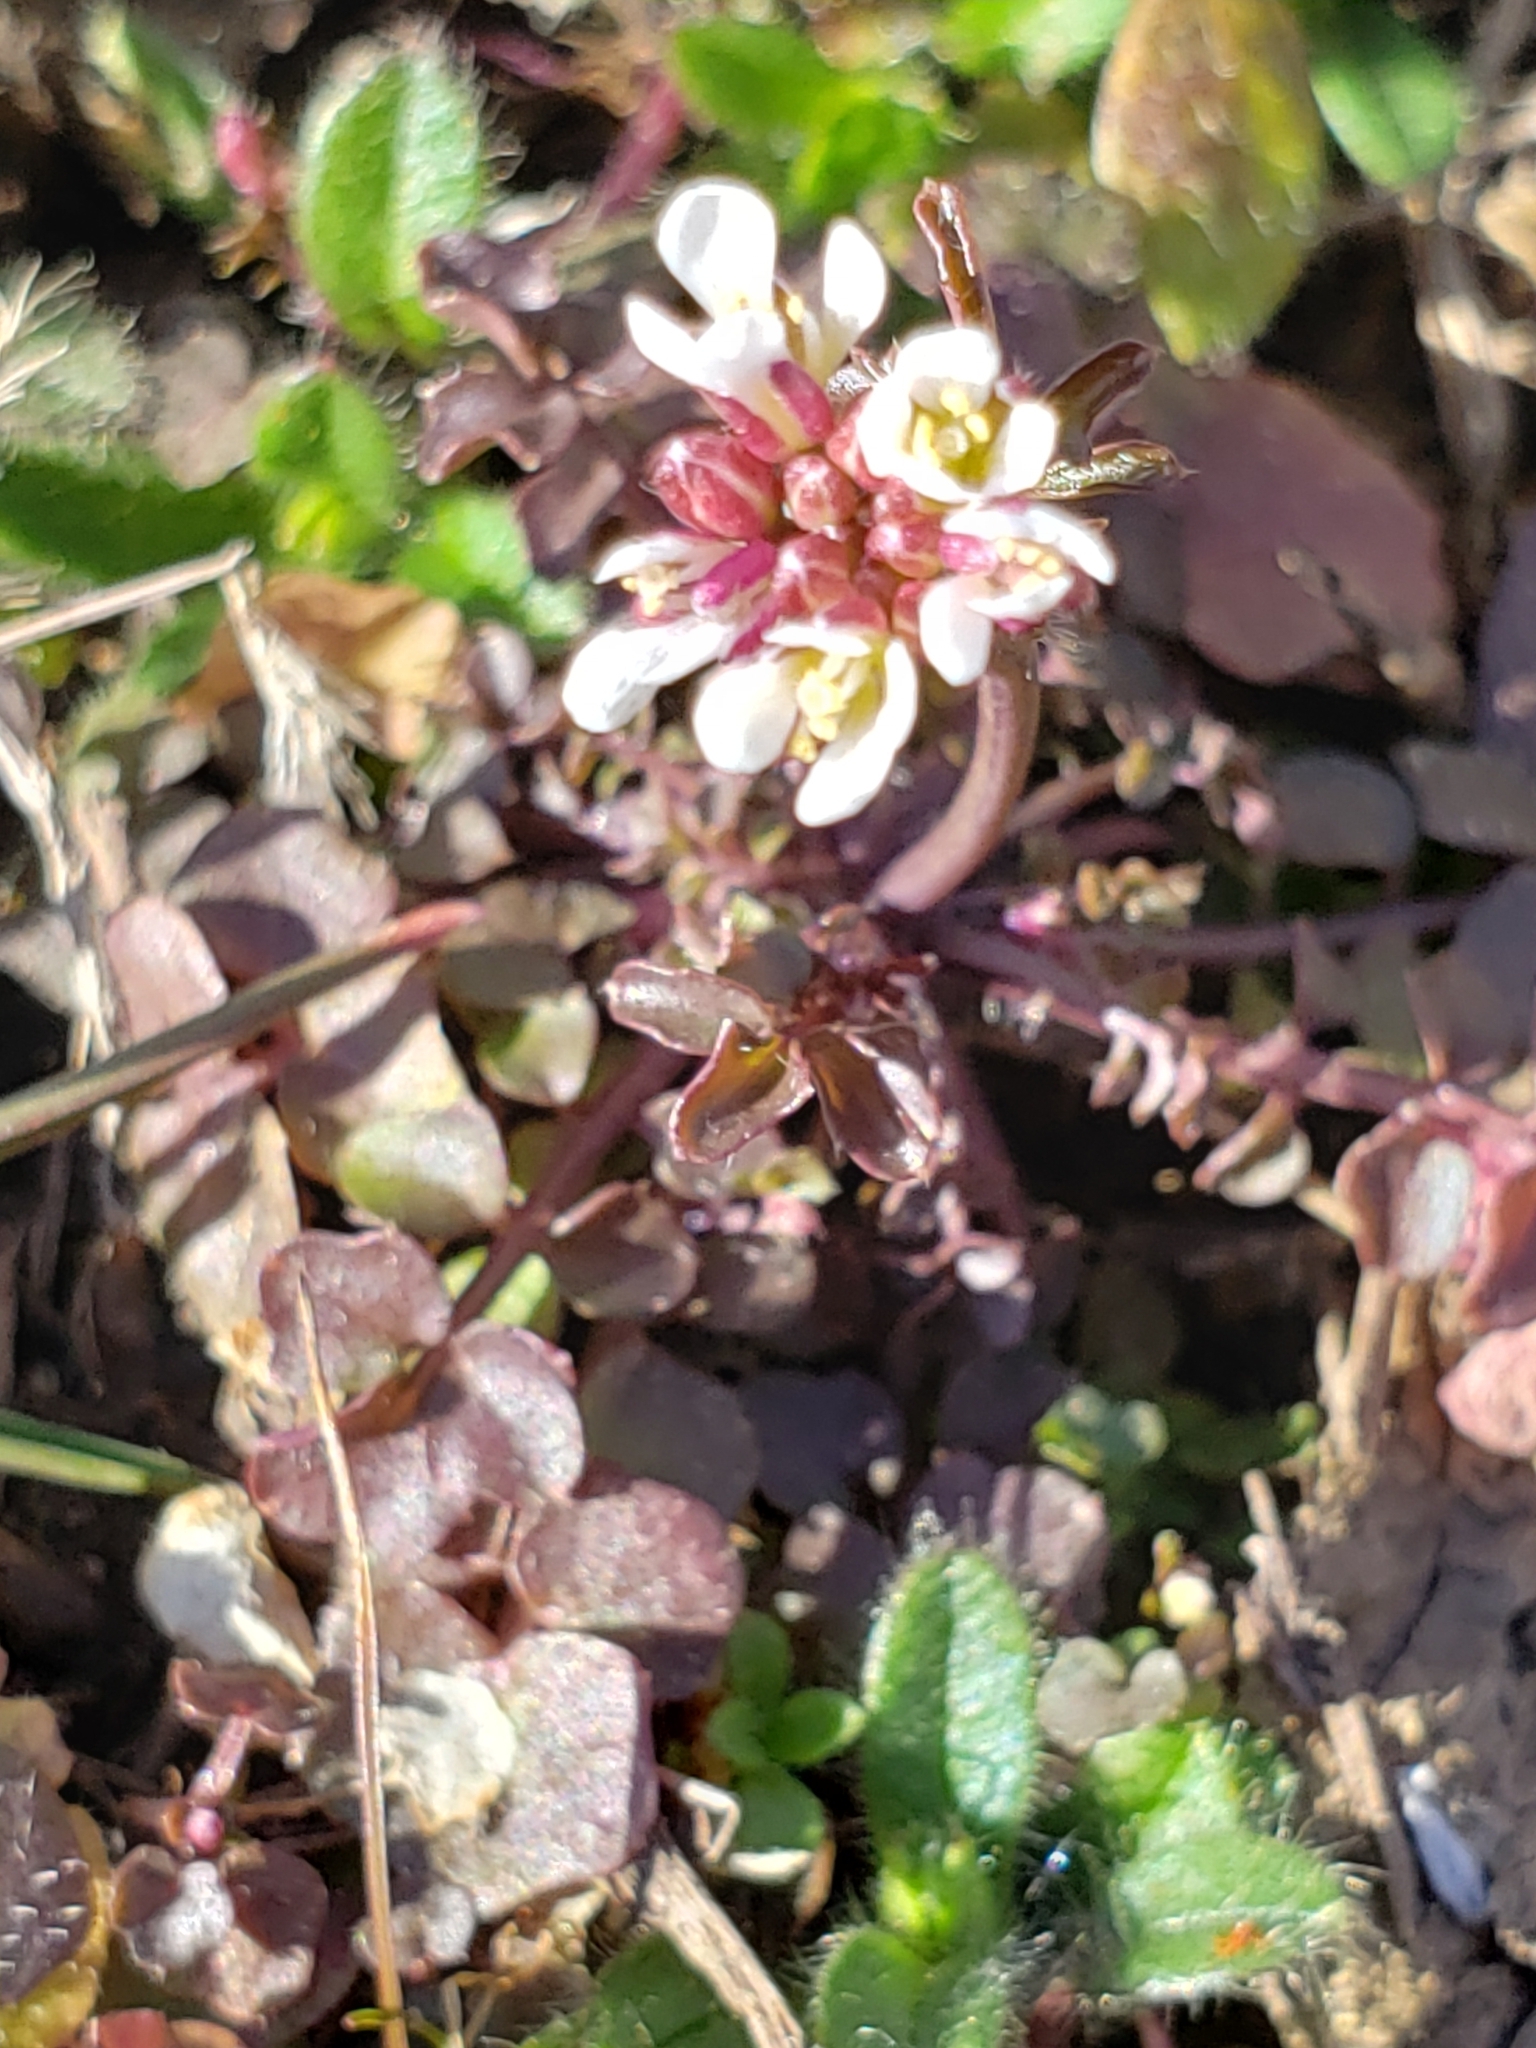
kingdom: Plantae
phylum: Tracheophyta
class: Magnoliopsida
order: Brassicales
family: Brassicaceae
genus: Cardamine
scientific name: Cardamine hirsuta
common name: Hairy bittercress
